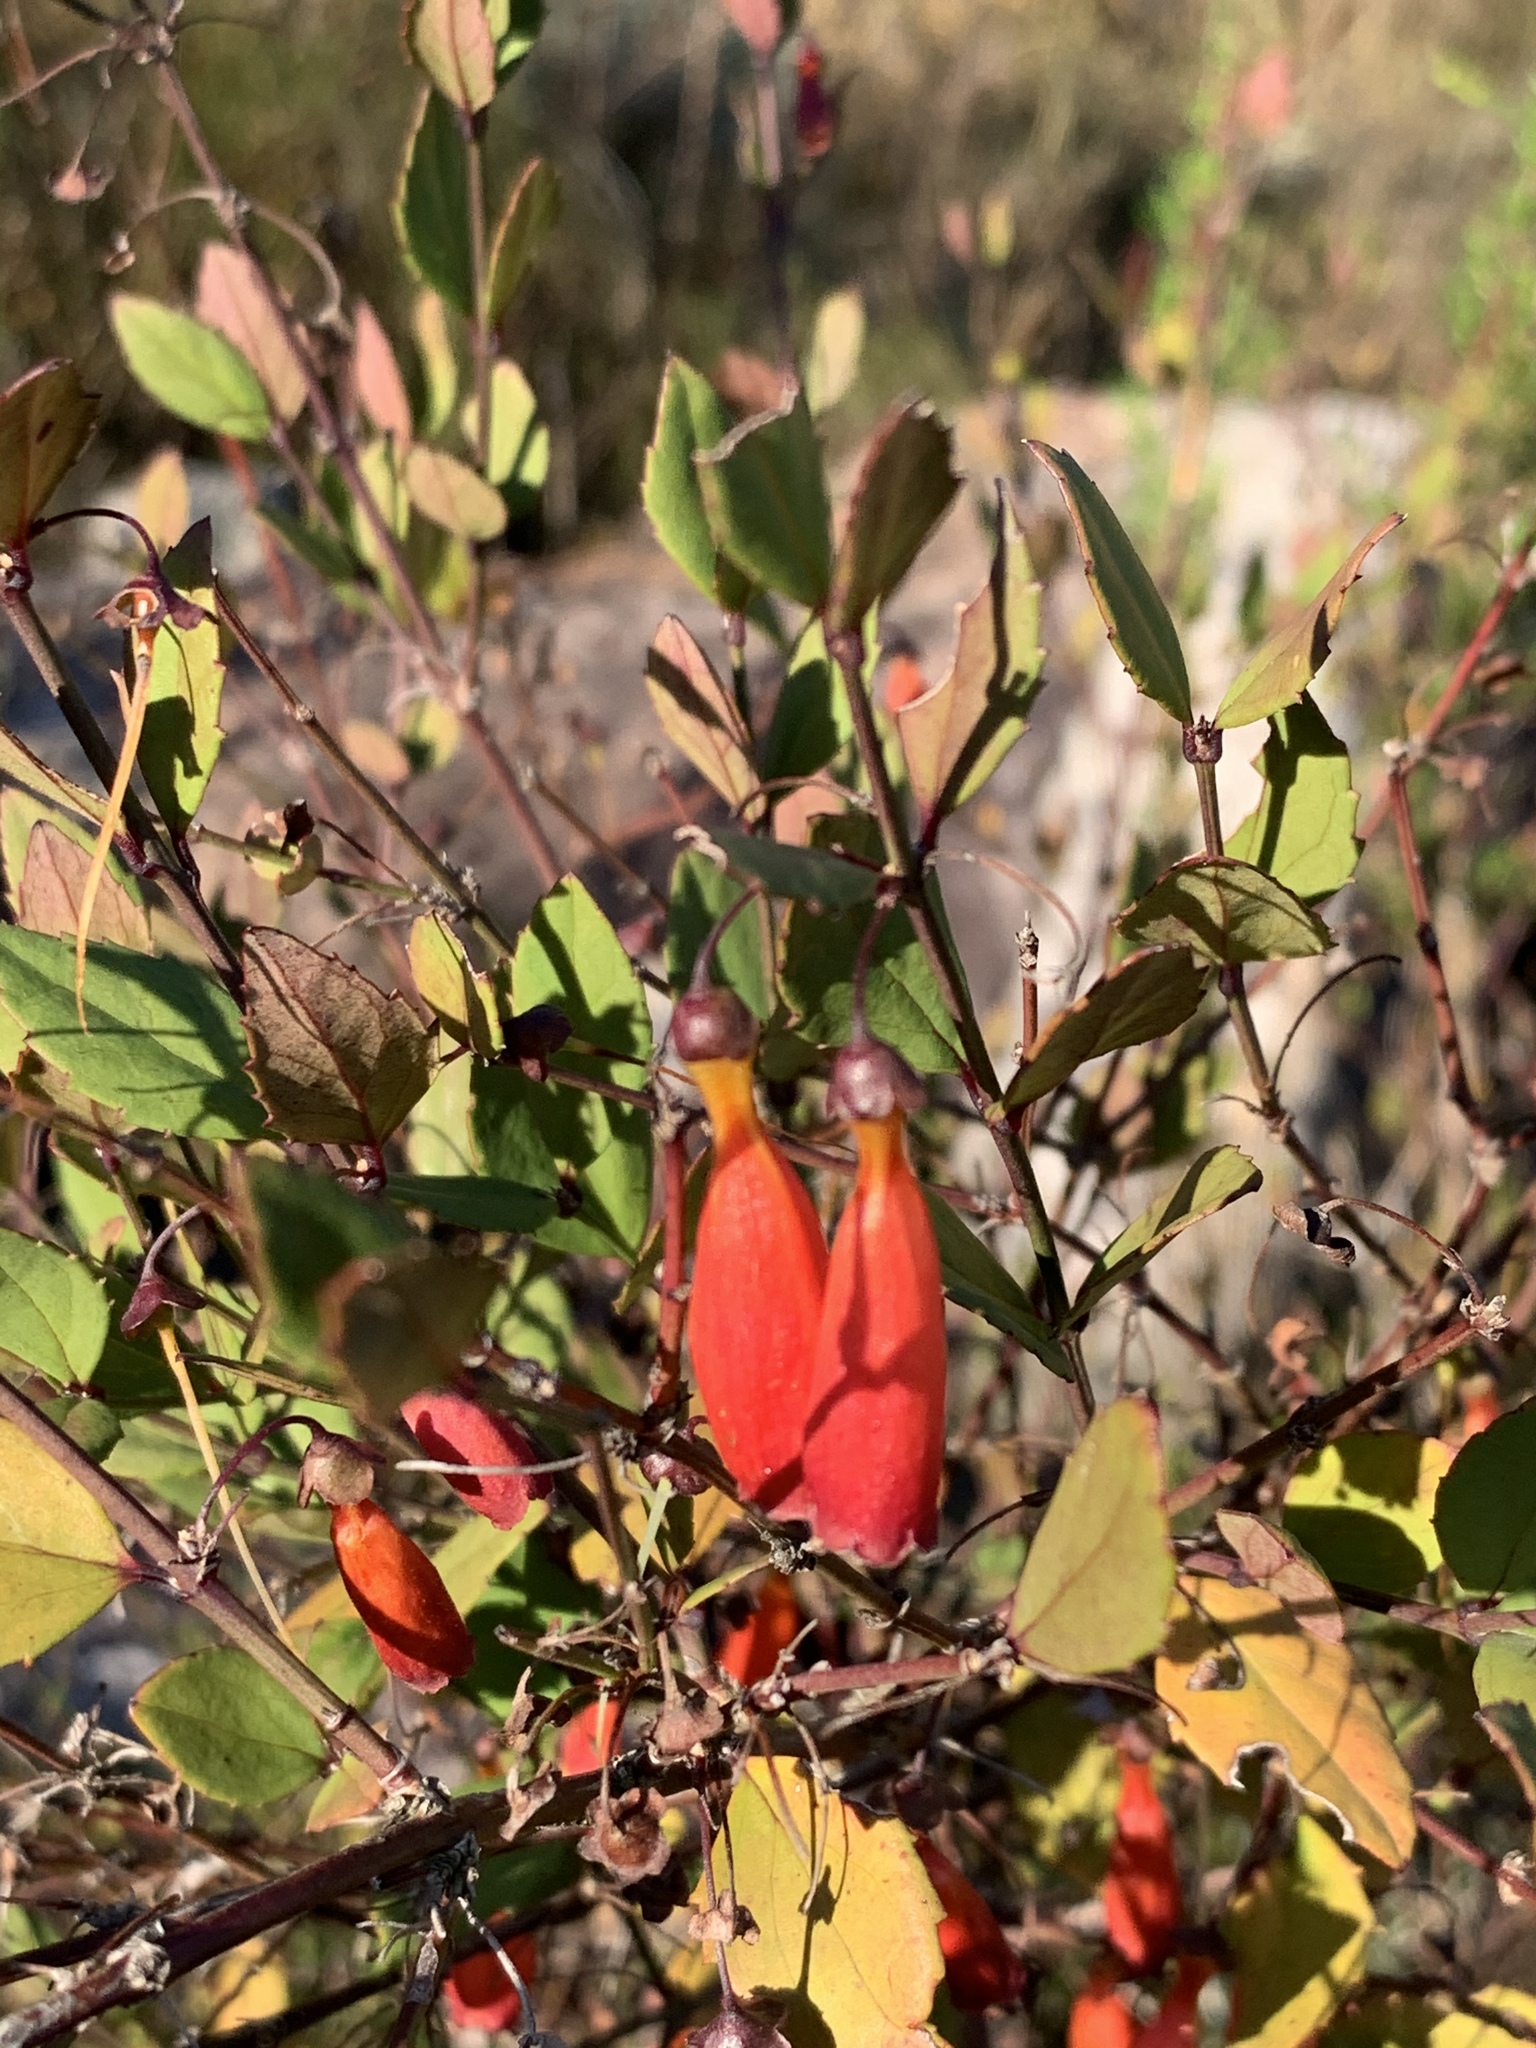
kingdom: Plantae
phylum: Tracheophyta
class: Magnoliopsida
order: Lamiales
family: Stilbaceae
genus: Halleria
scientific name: Halleria elliptica
